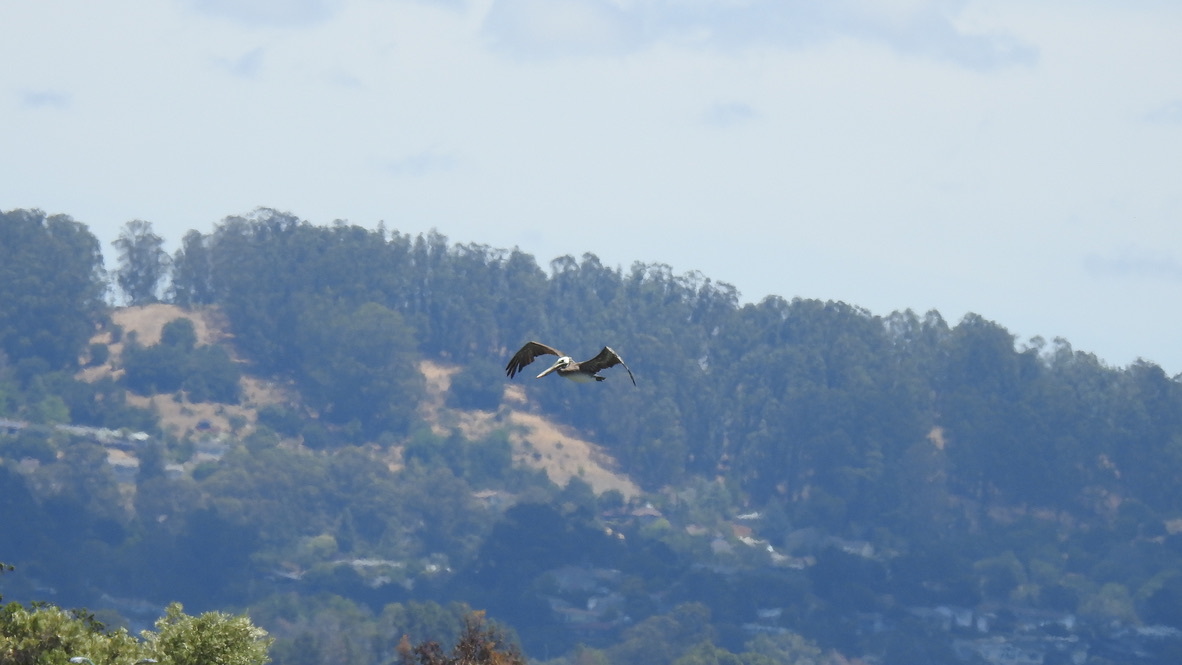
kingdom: Animalia
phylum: Chordata
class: Aves
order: Pelecaniformes
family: Pelecanidae
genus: Pelecanus
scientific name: Pelecanus occidentalis
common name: Brown pelican
